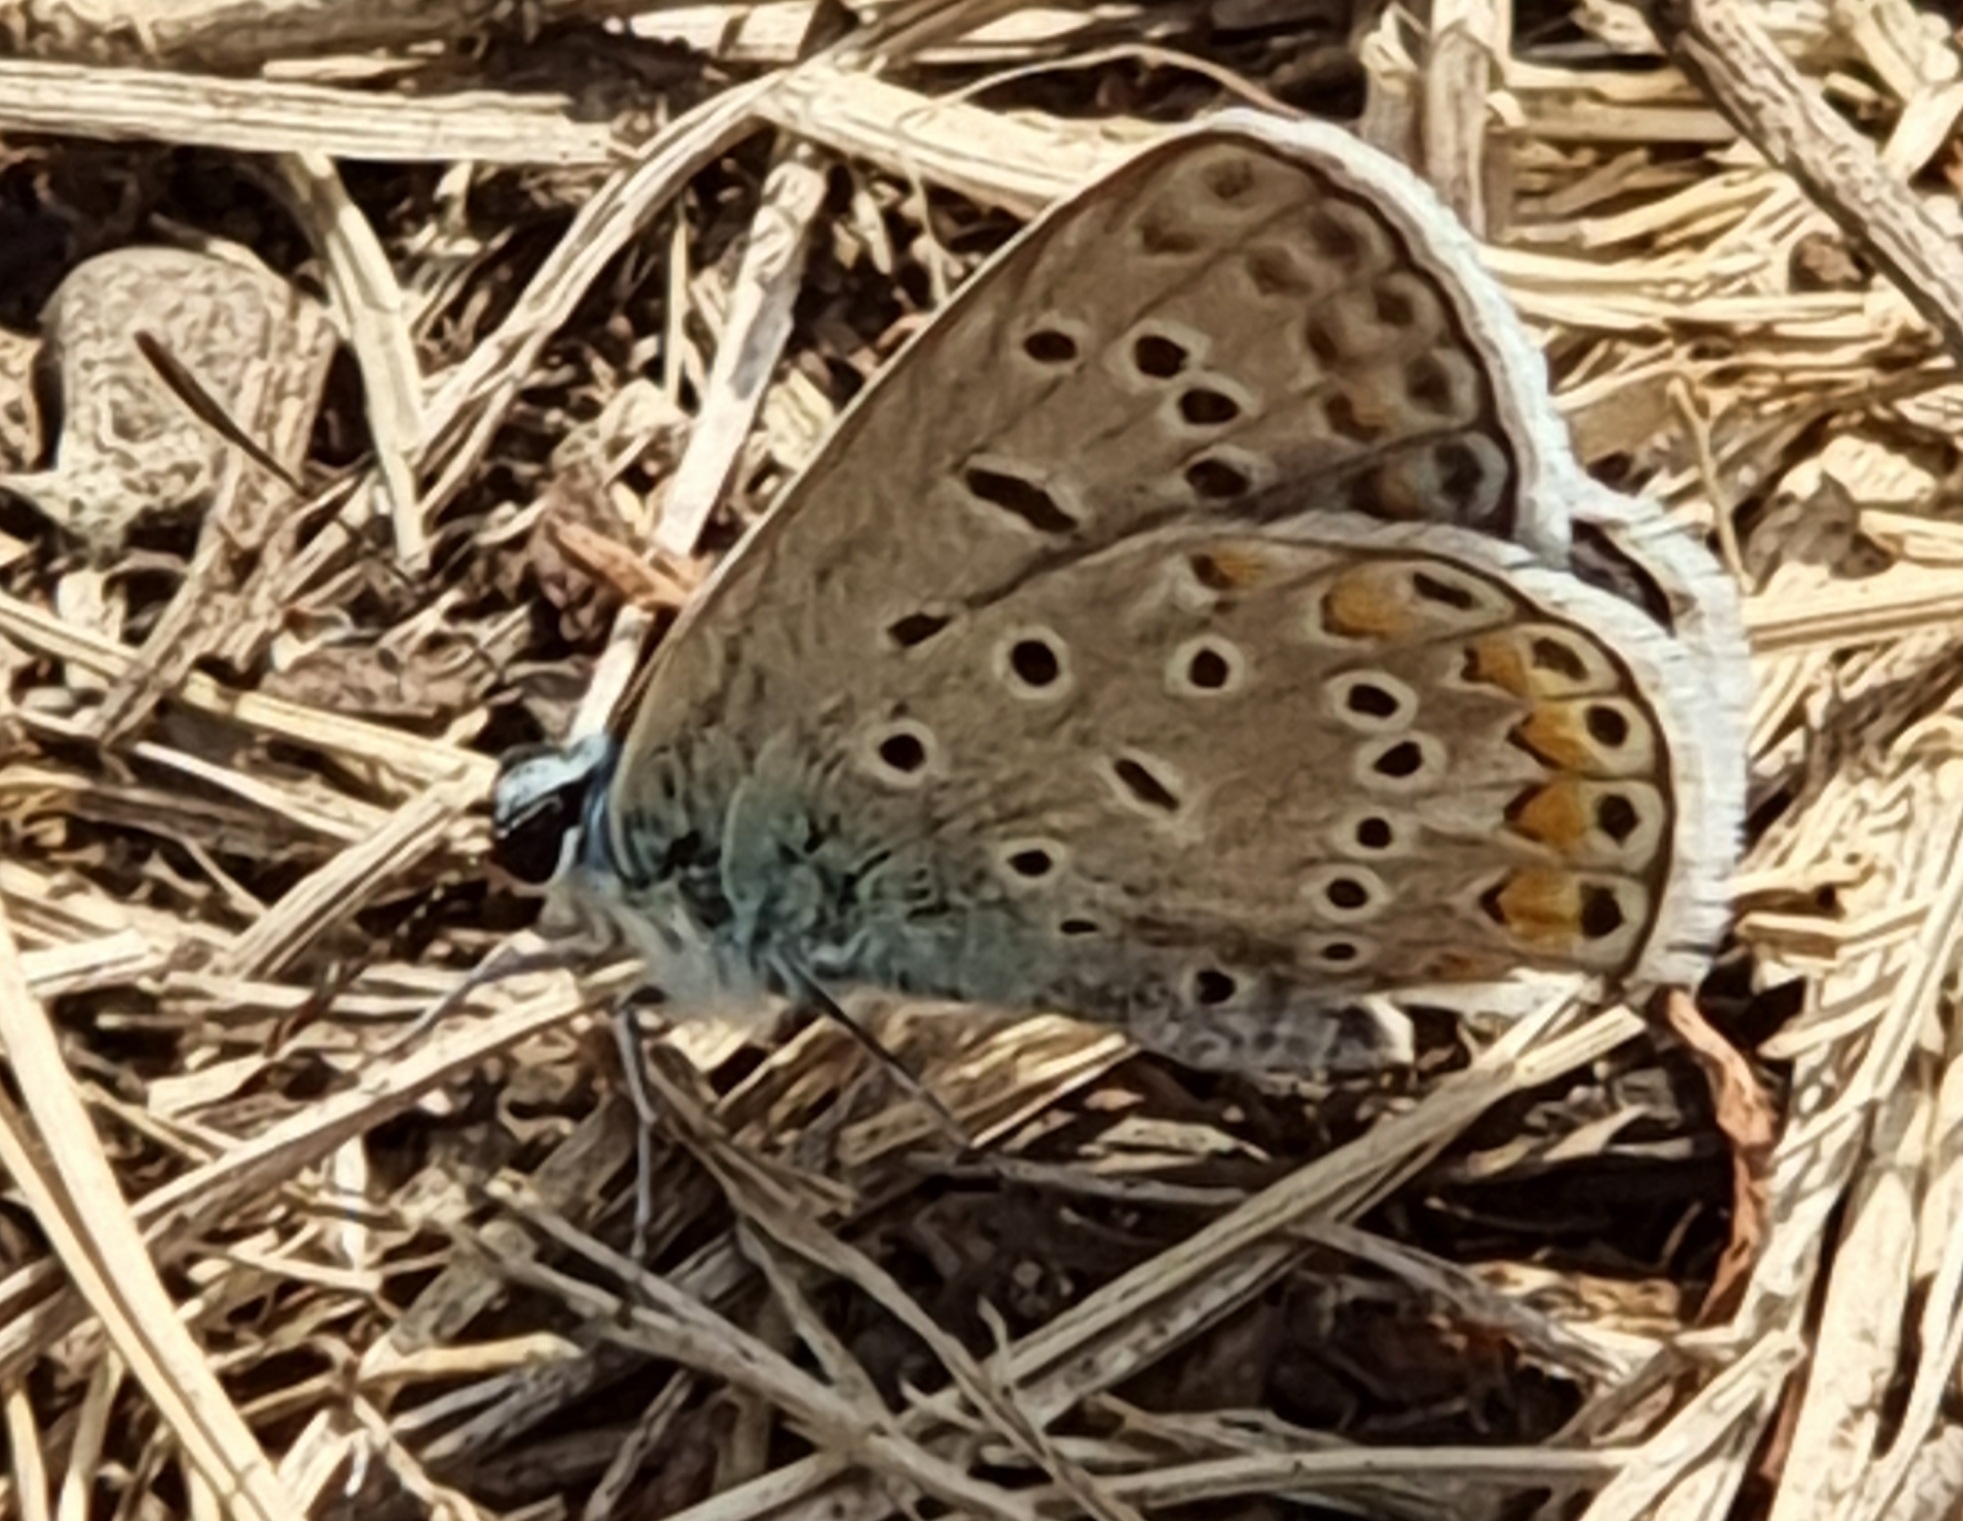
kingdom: Animalia
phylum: Arthropoda
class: Insecta
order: Lepidoptera
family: Lycaenidae
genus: Polyommatus
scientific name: Polyommatus icarus
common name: Common blue
